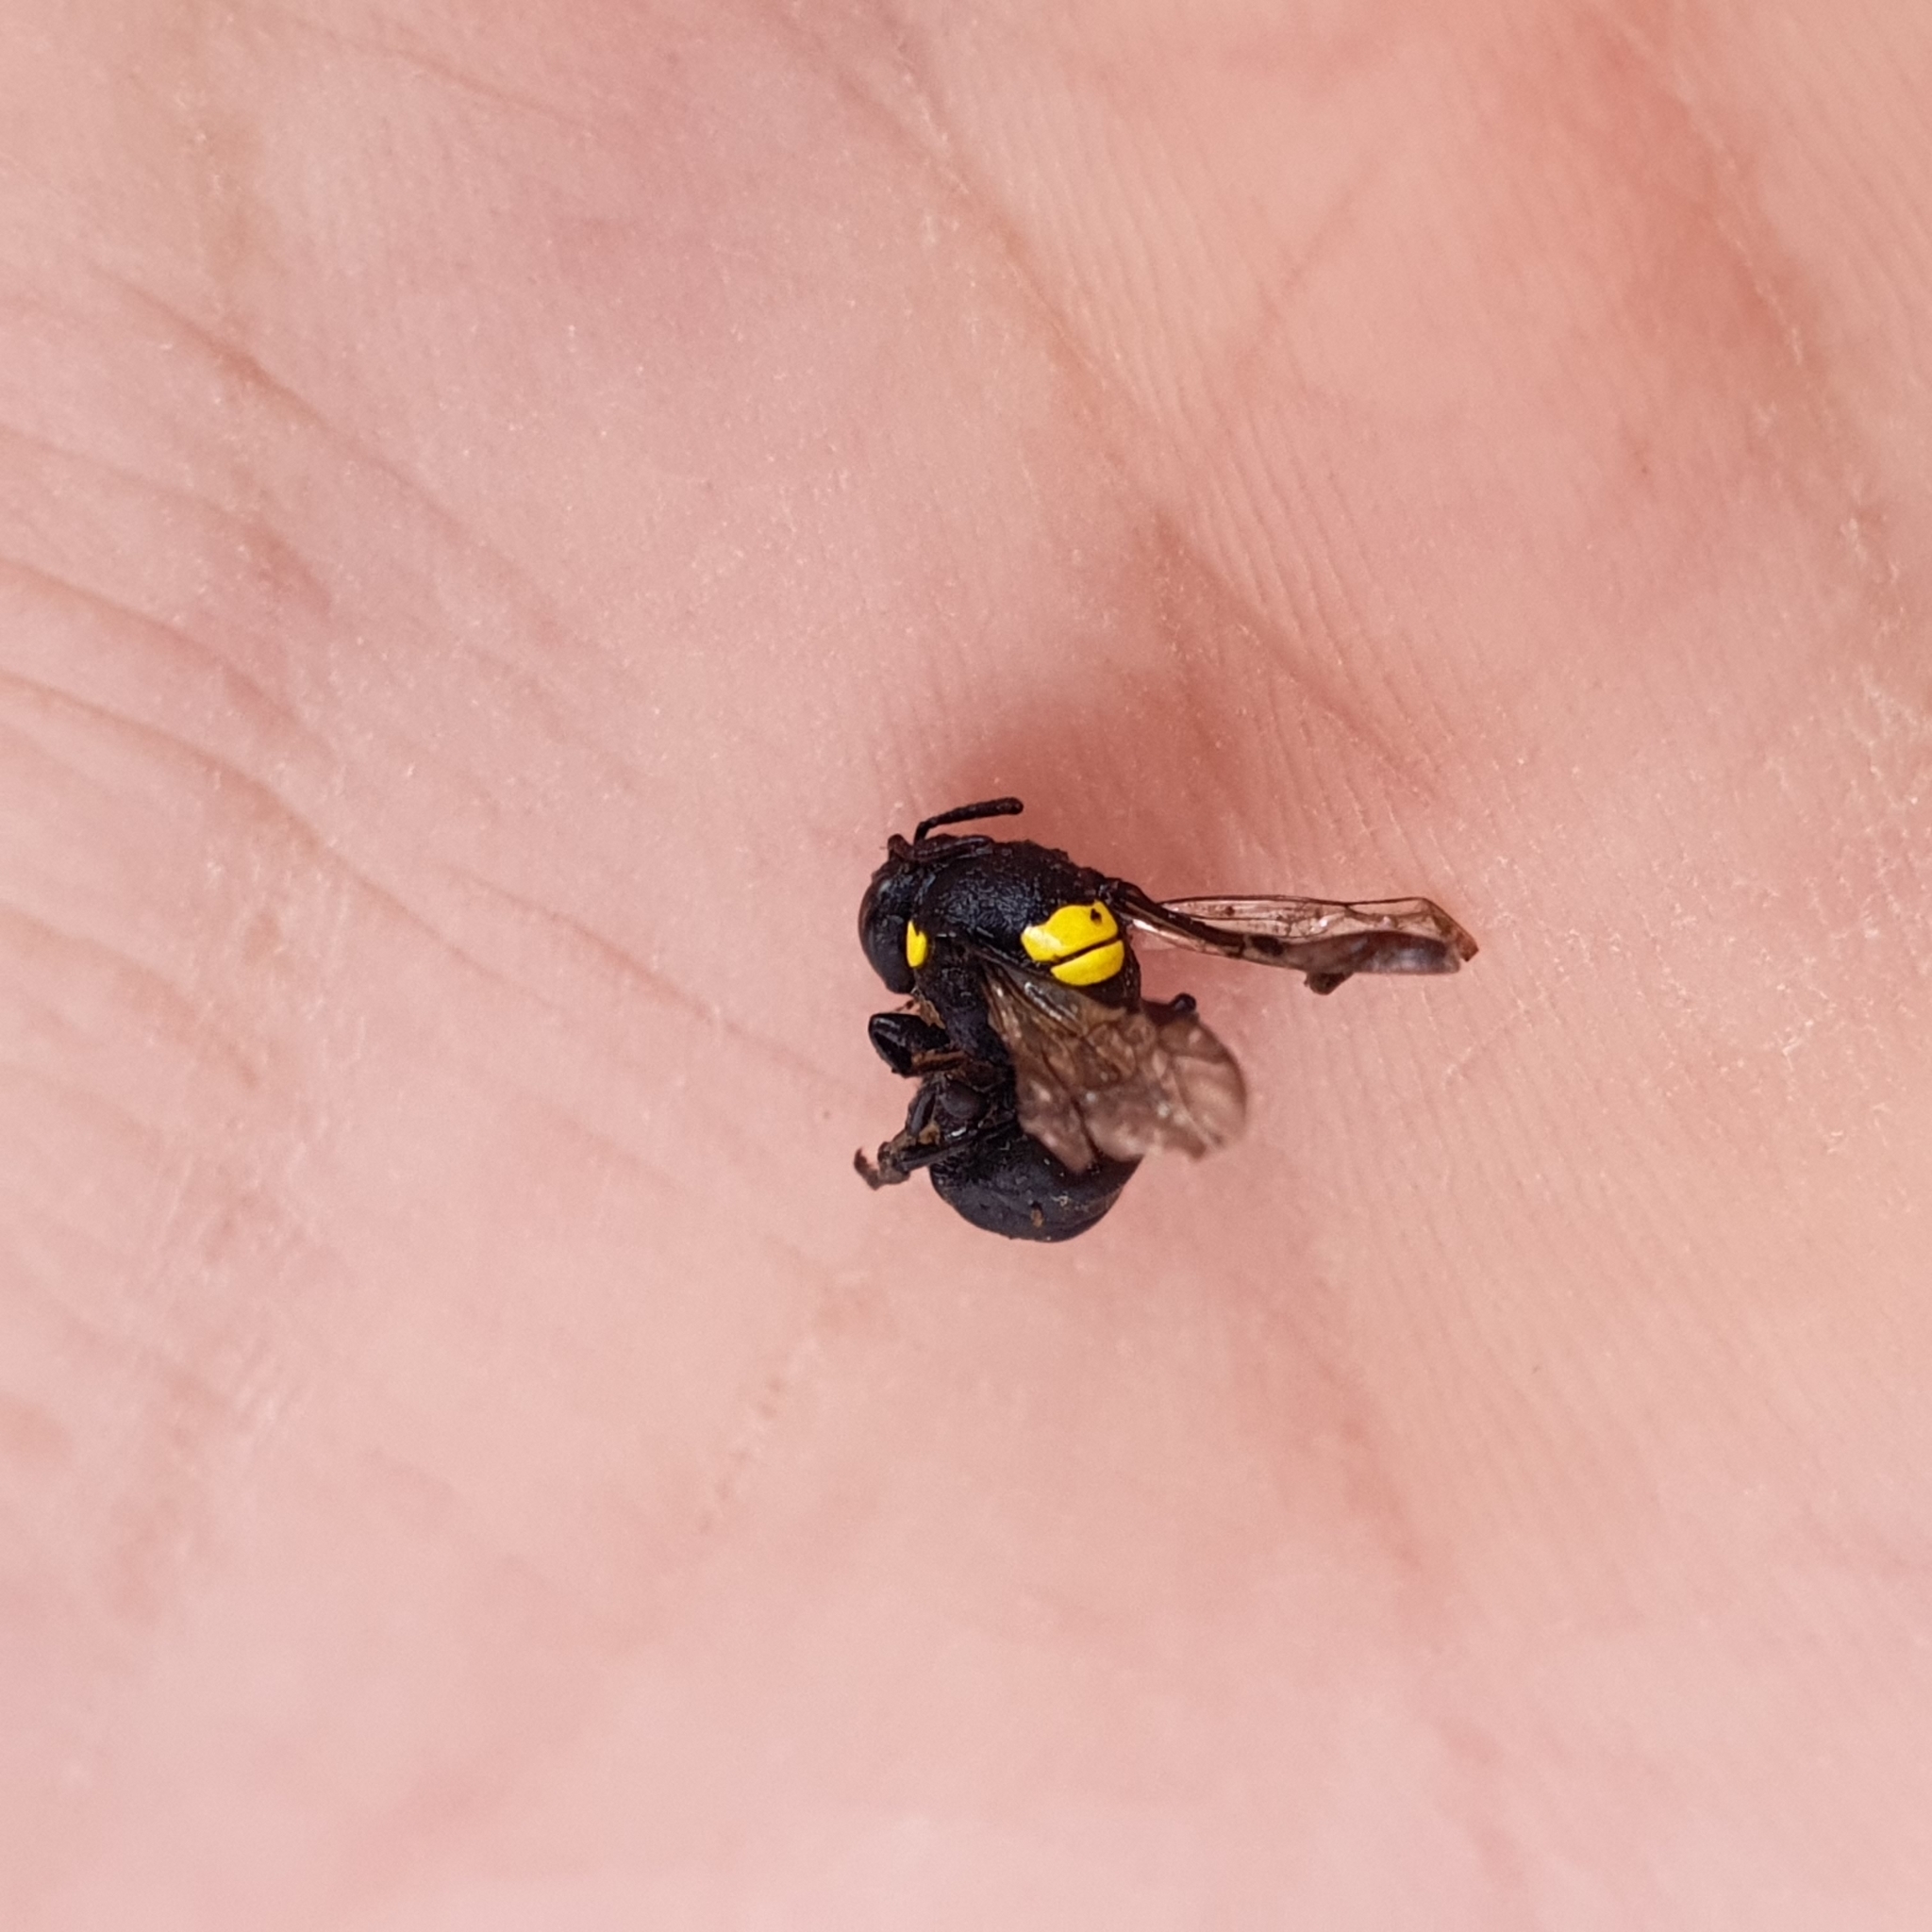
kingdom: Animalia
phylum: Arthropoda
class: Insecta
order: Hymenoptera
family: Colletidae
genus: Hylaeus
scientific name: Hylaeus nubilosus
